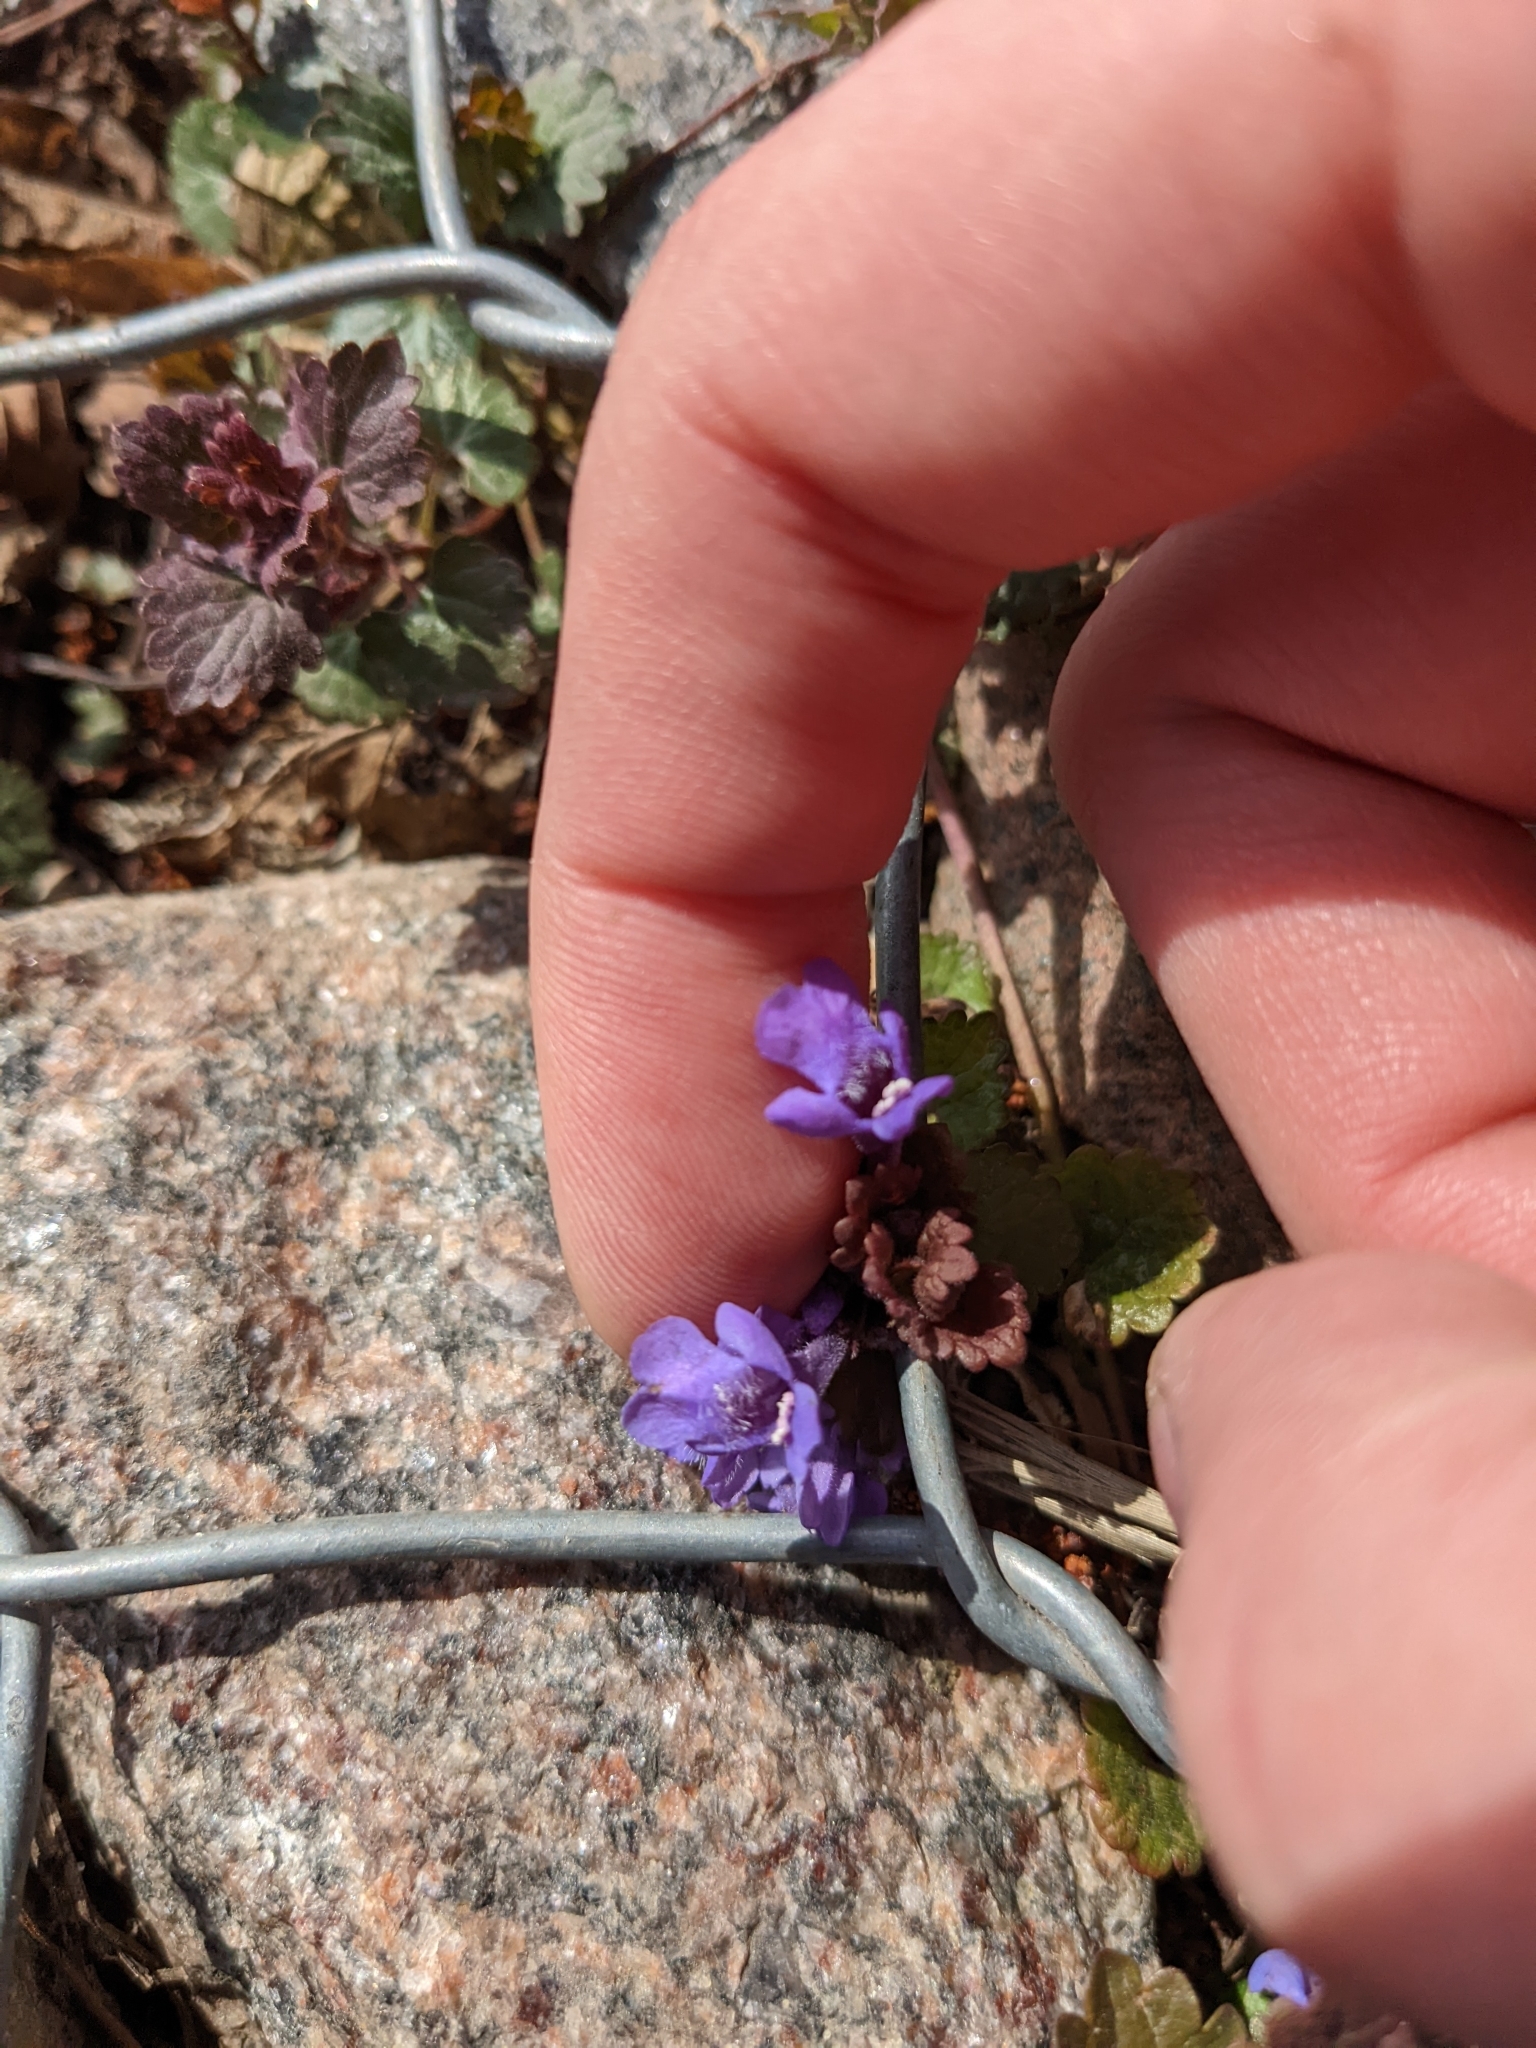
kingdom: Plantae
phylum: Tracheophyta
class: Magnoliopsida
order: Lamiales
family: Lamiaceae
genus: Glechoma
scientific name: Glechoma hederacea
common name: Ground ivy
